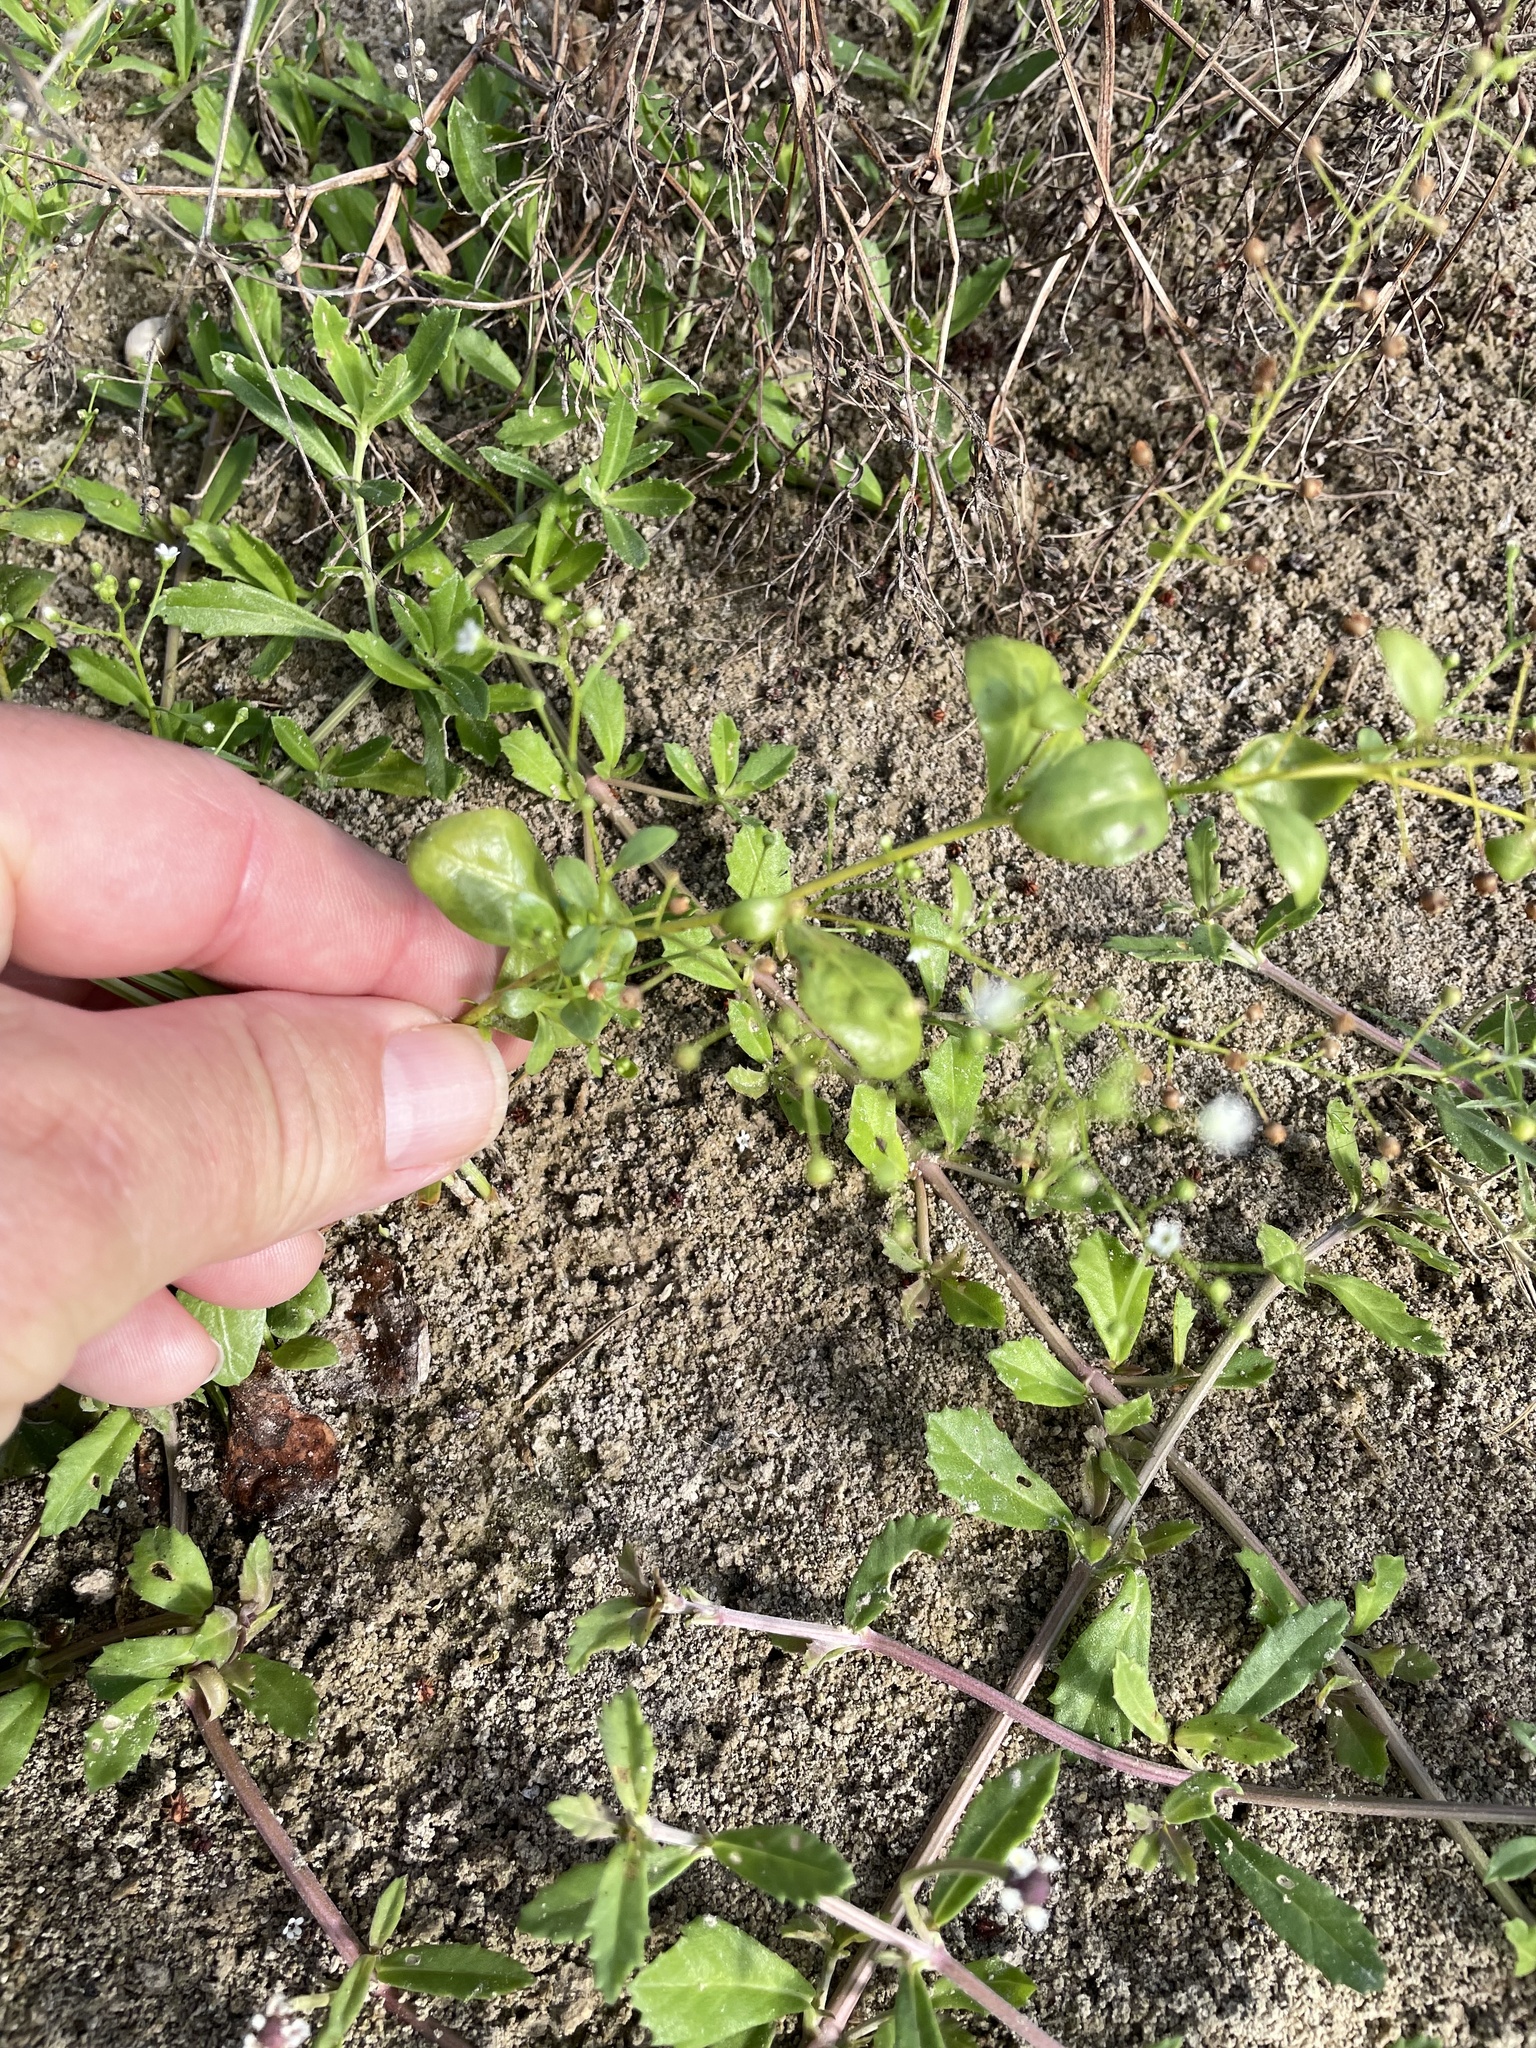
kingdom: Plantae
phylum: Tracheophyta
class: Magnoliopsida
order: Ericales
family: Primulaceae
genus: Samolus
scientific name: Samolus parviflorus
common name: False water pimpernel
